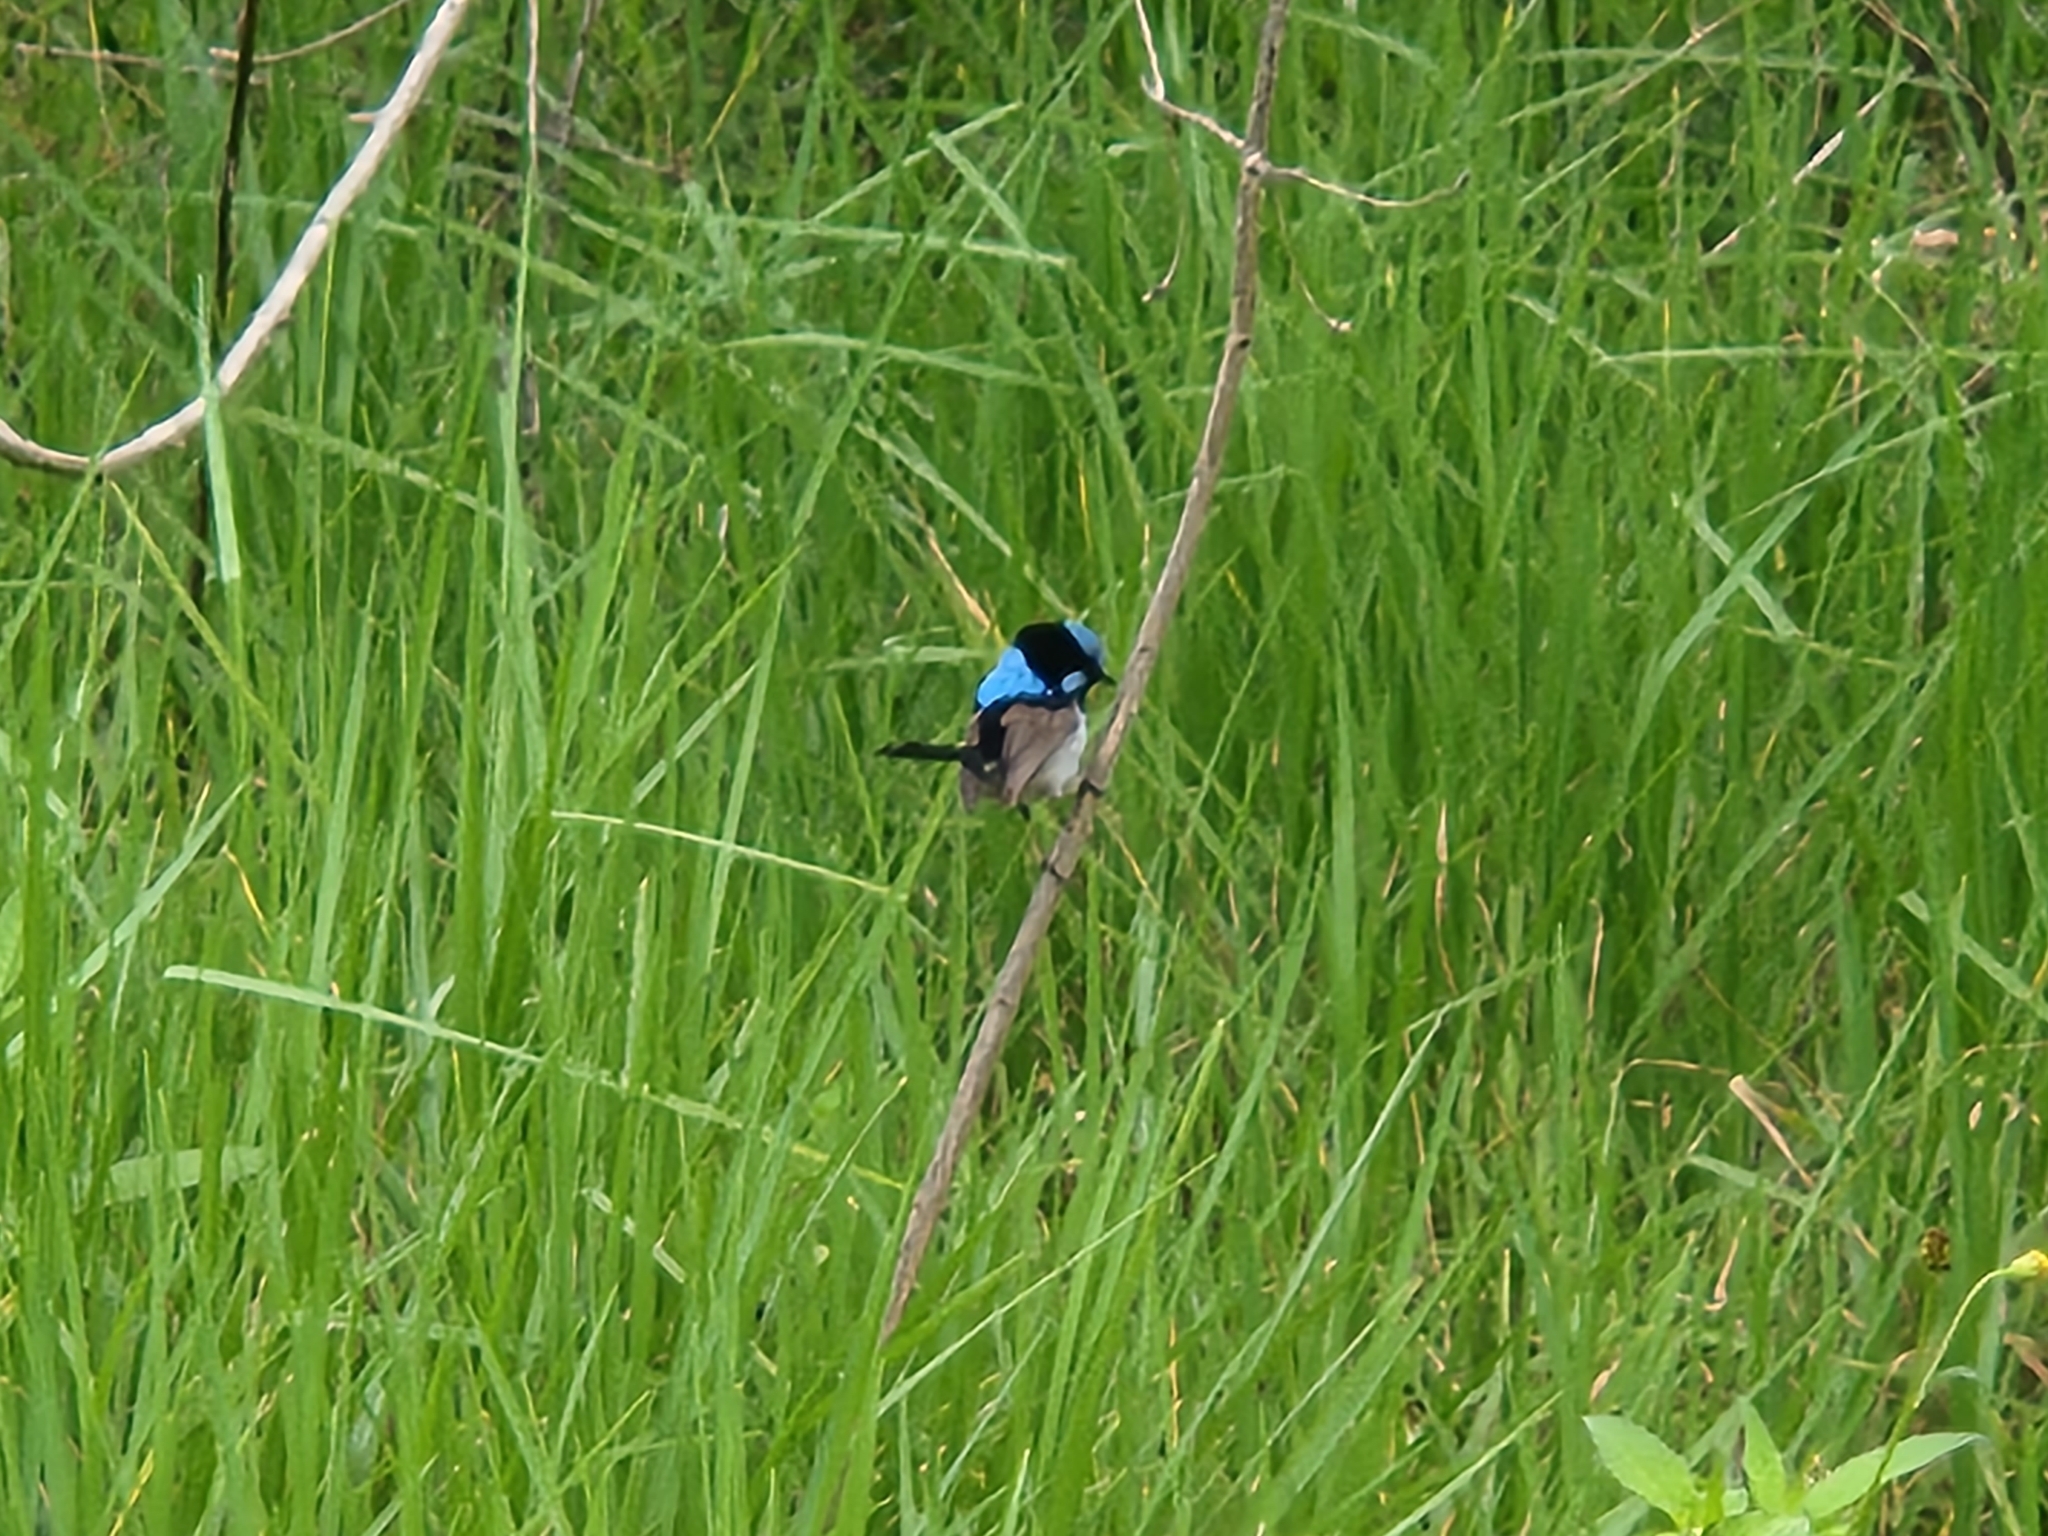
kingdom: Animalia
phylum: Chordata
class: Aves
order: Passeriformes
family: Maluridae
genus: Malurus
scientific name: Malurus cyaneus
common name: Superb fairywren
